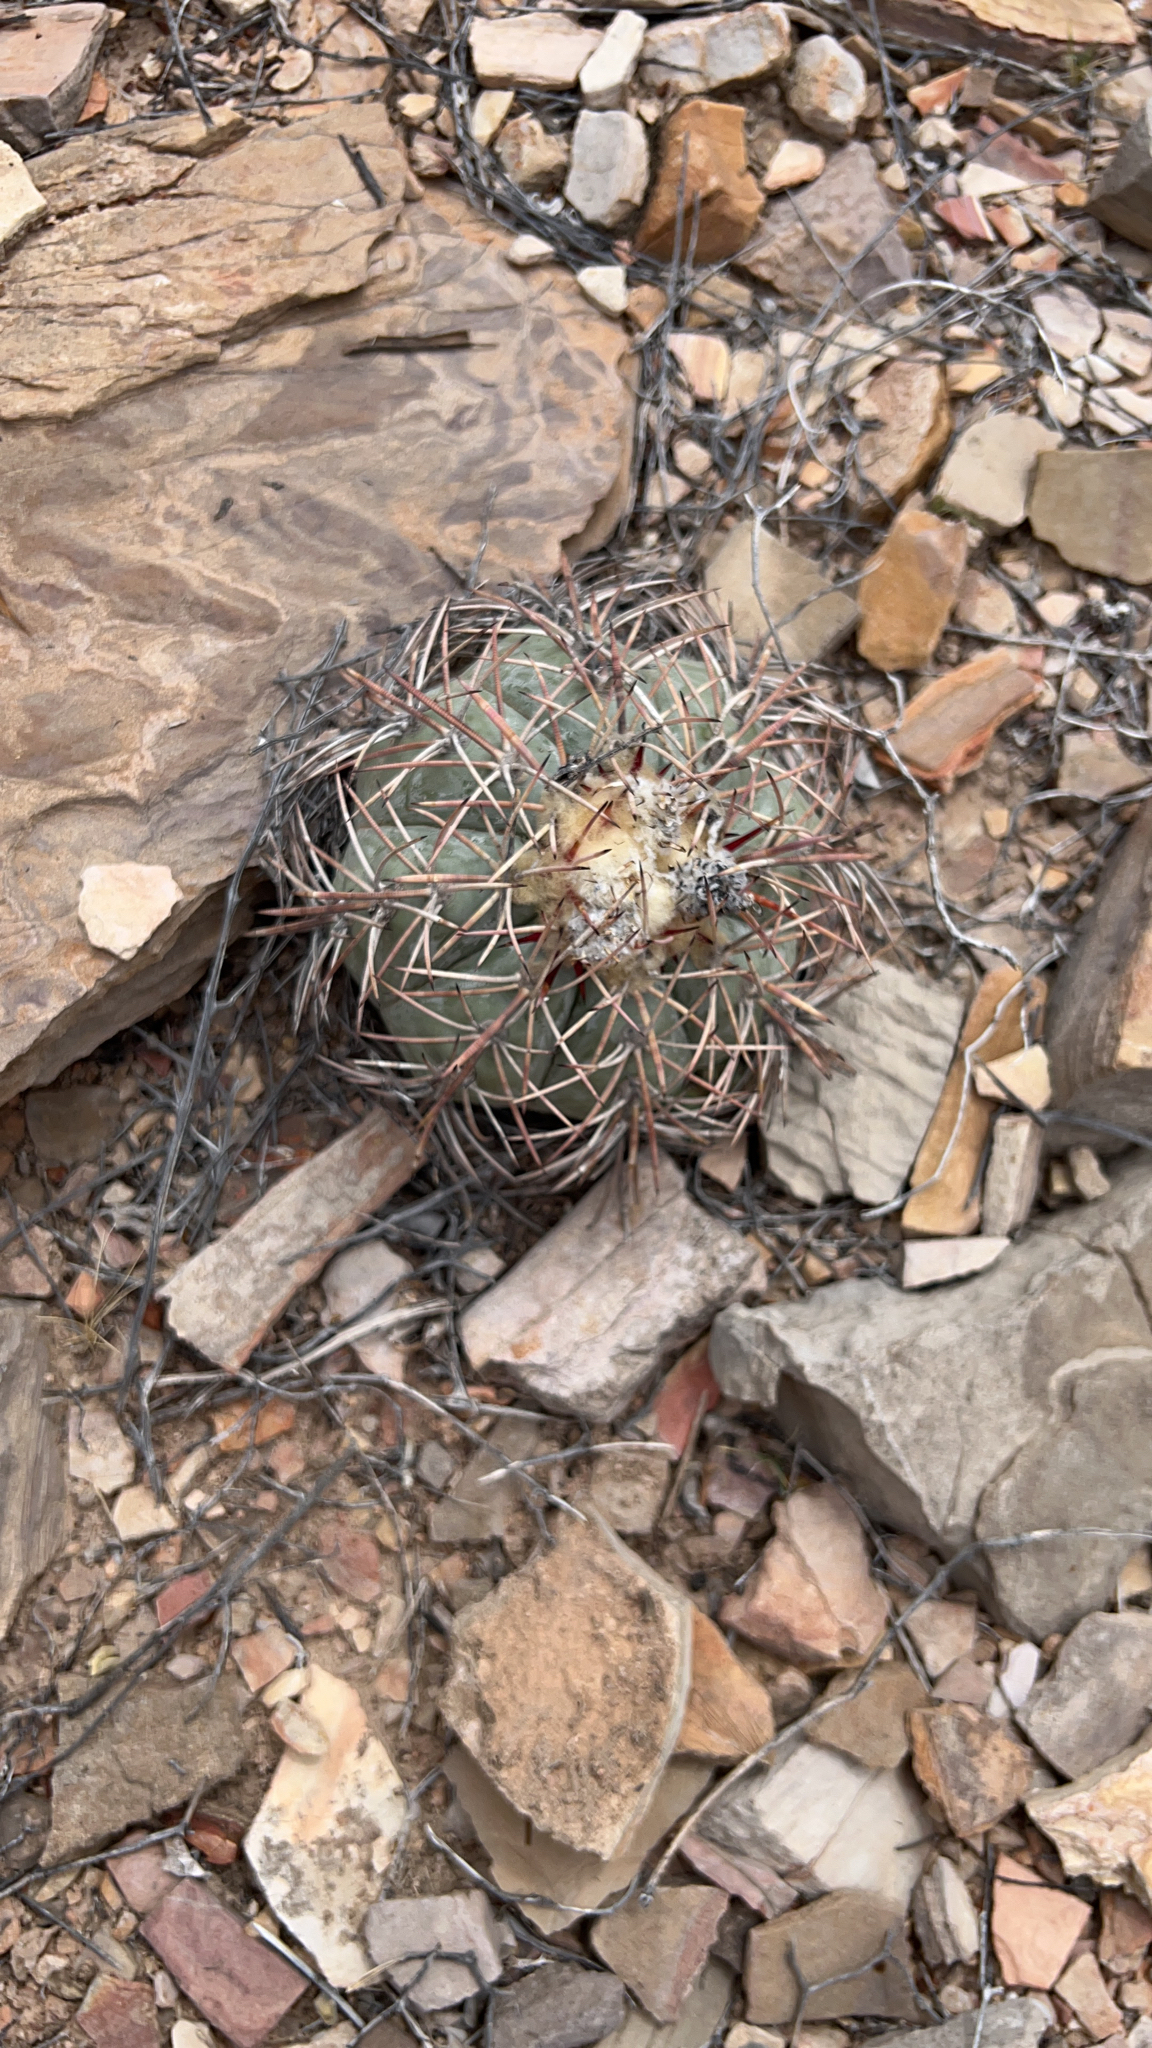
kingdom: Plantae
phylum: Tracheophyta
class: Magnoliopsida
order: Caryophyllales
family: Cactaceae
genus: Echinocactus
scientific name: Echinocactus horizonthalonius
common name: Devilshead
